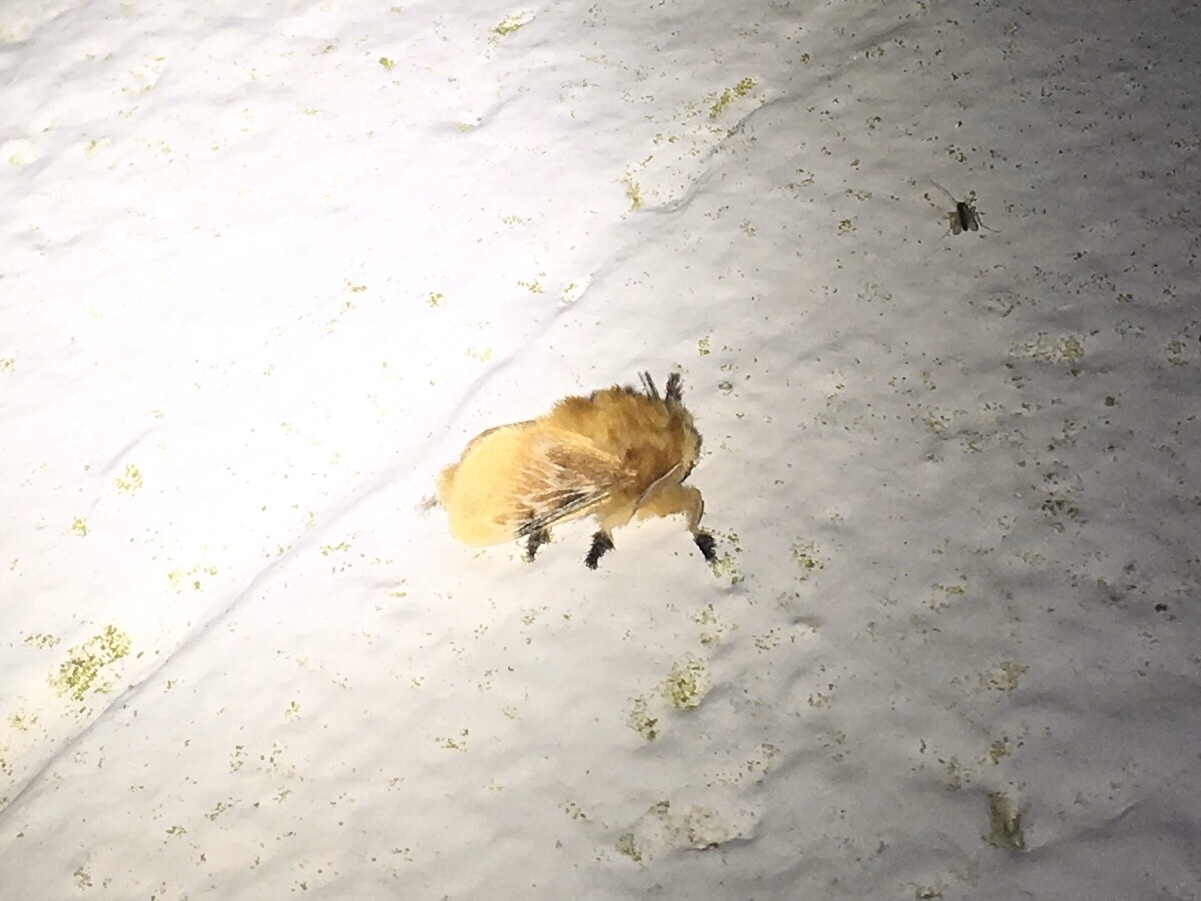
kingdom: Animalia
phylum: Arthropoda
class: Insecta
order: Lepidoptera
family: Megalopygidae
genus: Megalopyge
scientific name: Megalopyge opercularis
